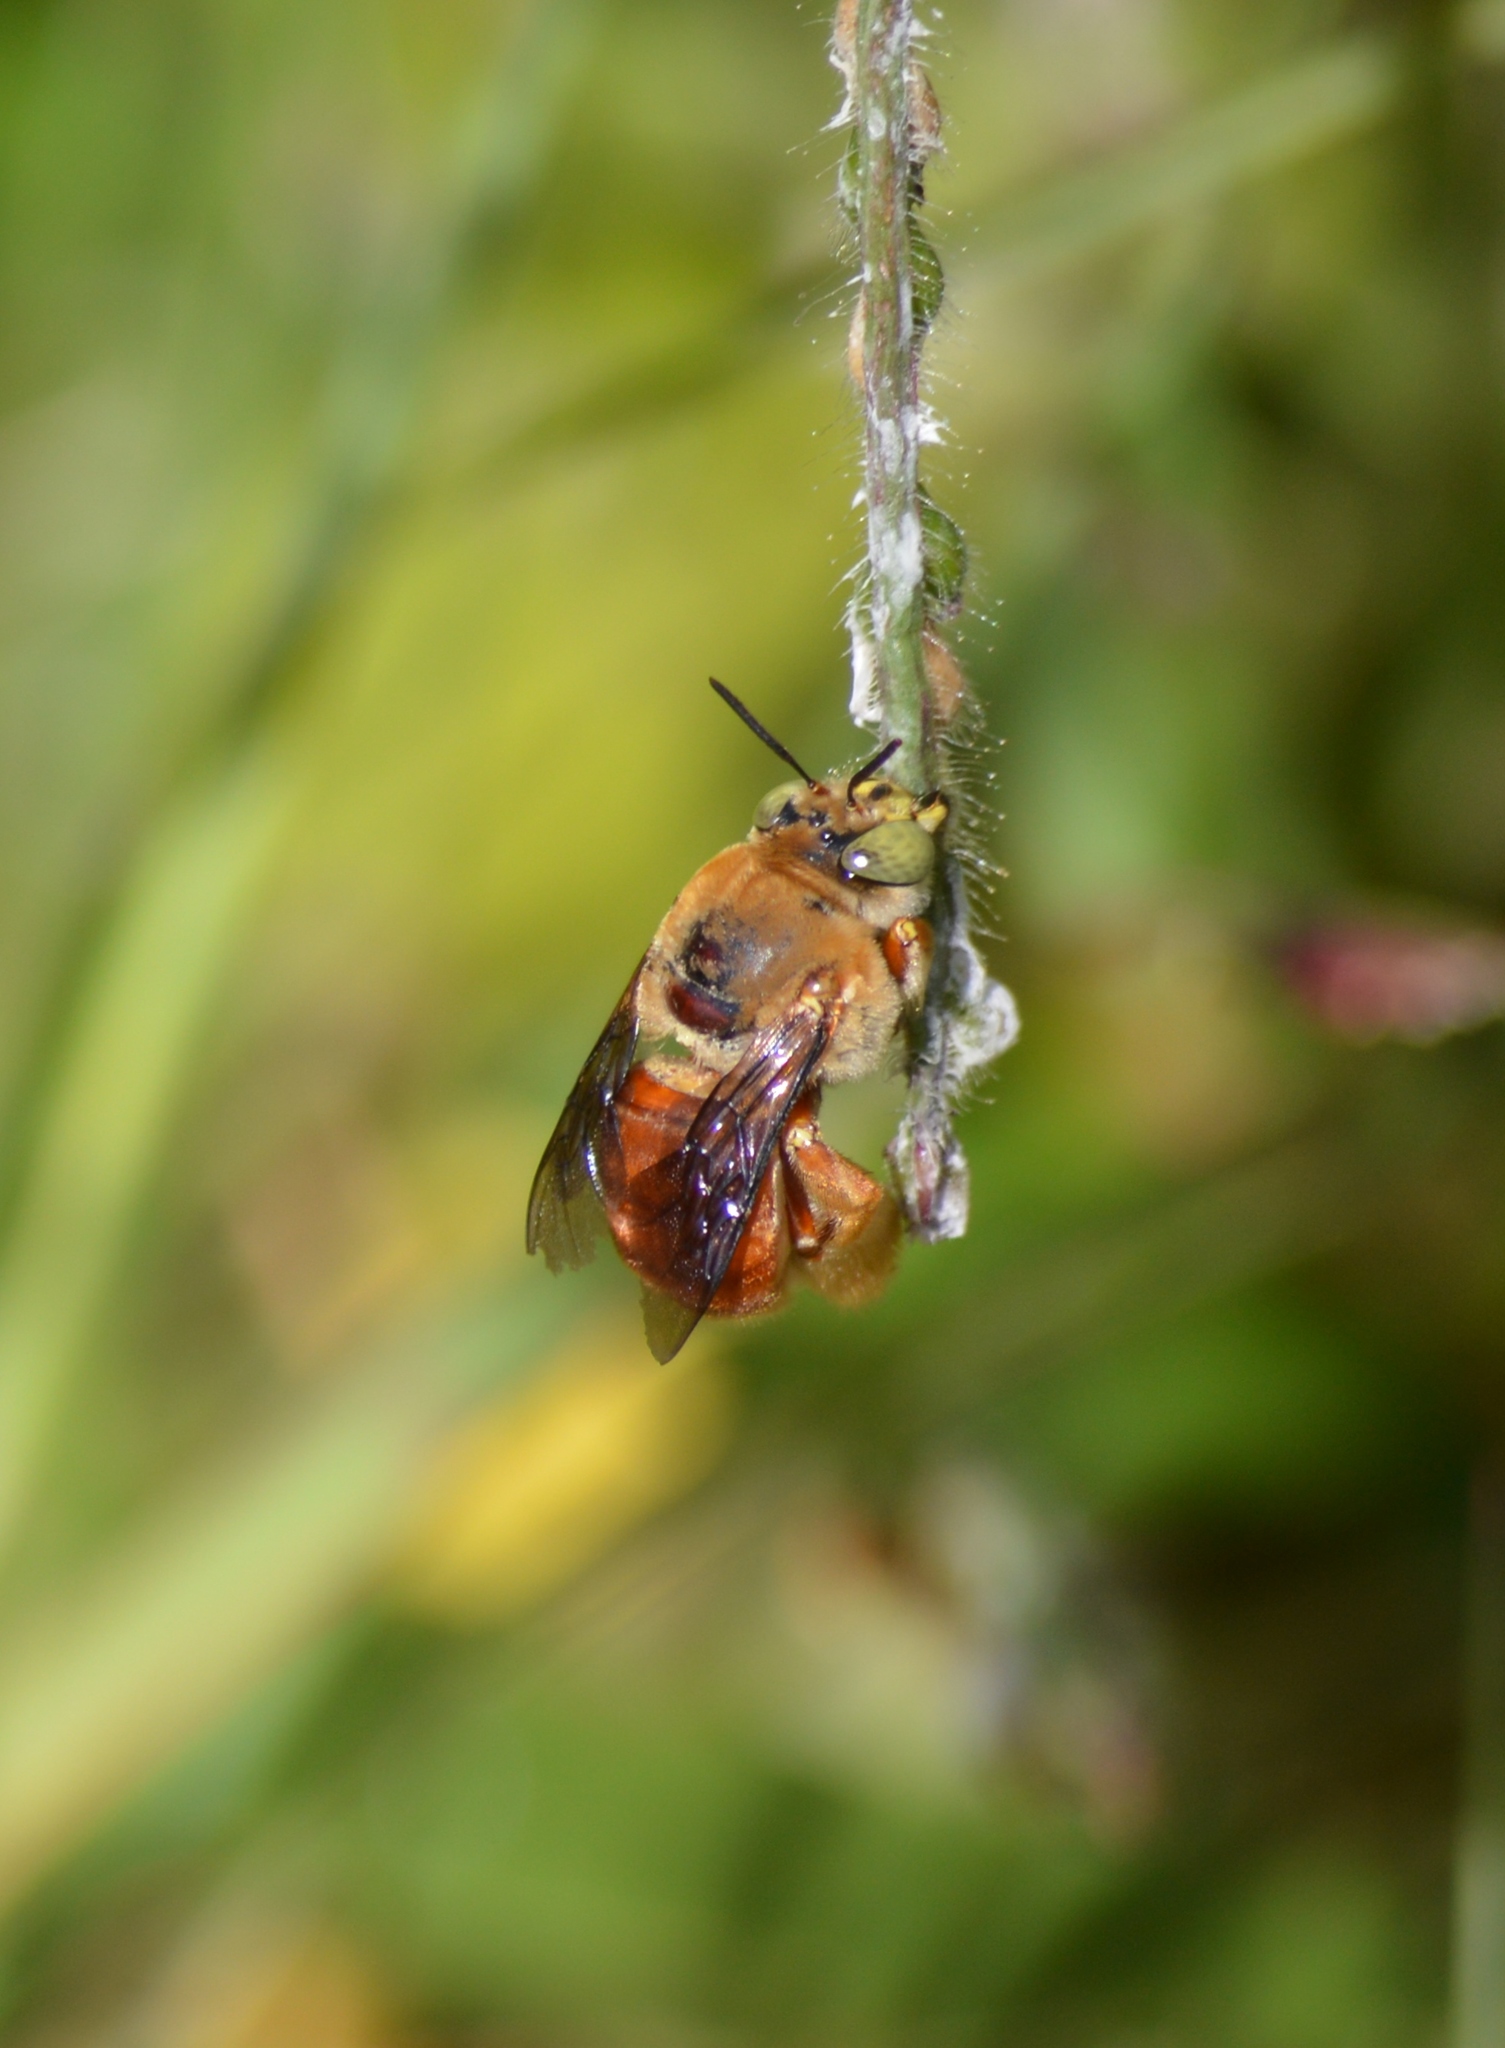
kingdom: Animalia
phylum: Arthropoda
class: Insecta
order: Hymenoptera
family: Apidae
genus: Centris
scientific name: Centris fuscata
